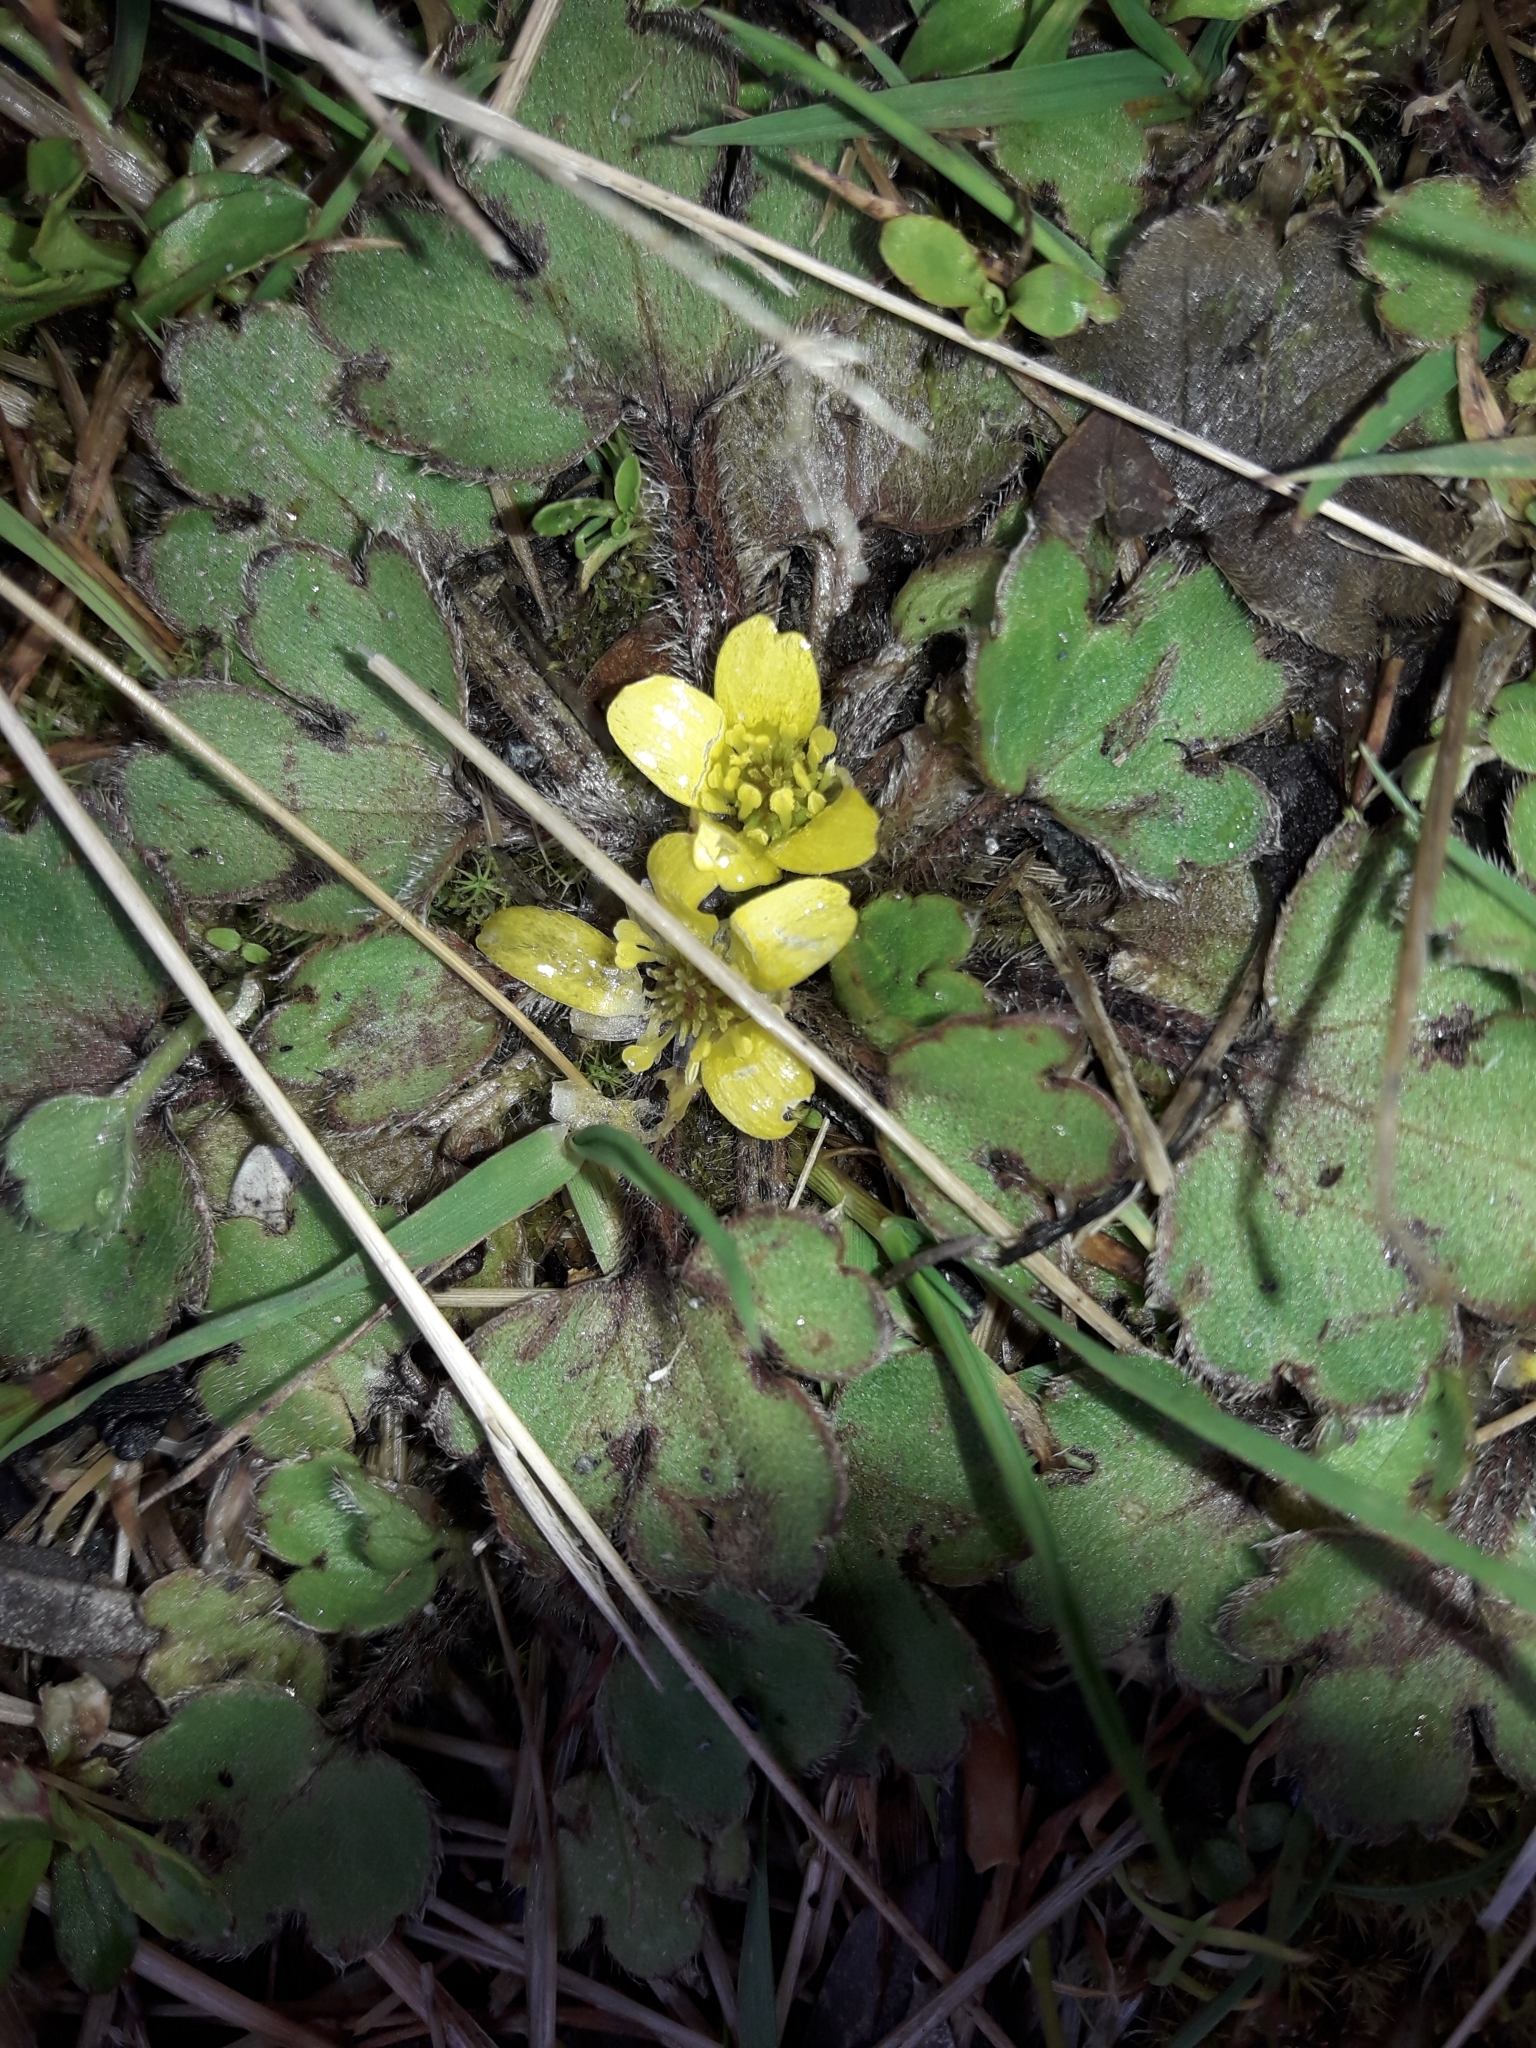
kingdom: Plantae
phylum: Tracheophyta
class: Magnoliopsida
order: Ranunculales
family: Ranunculaceae
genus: Ranunculus
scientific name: Ranunculus foliosus
